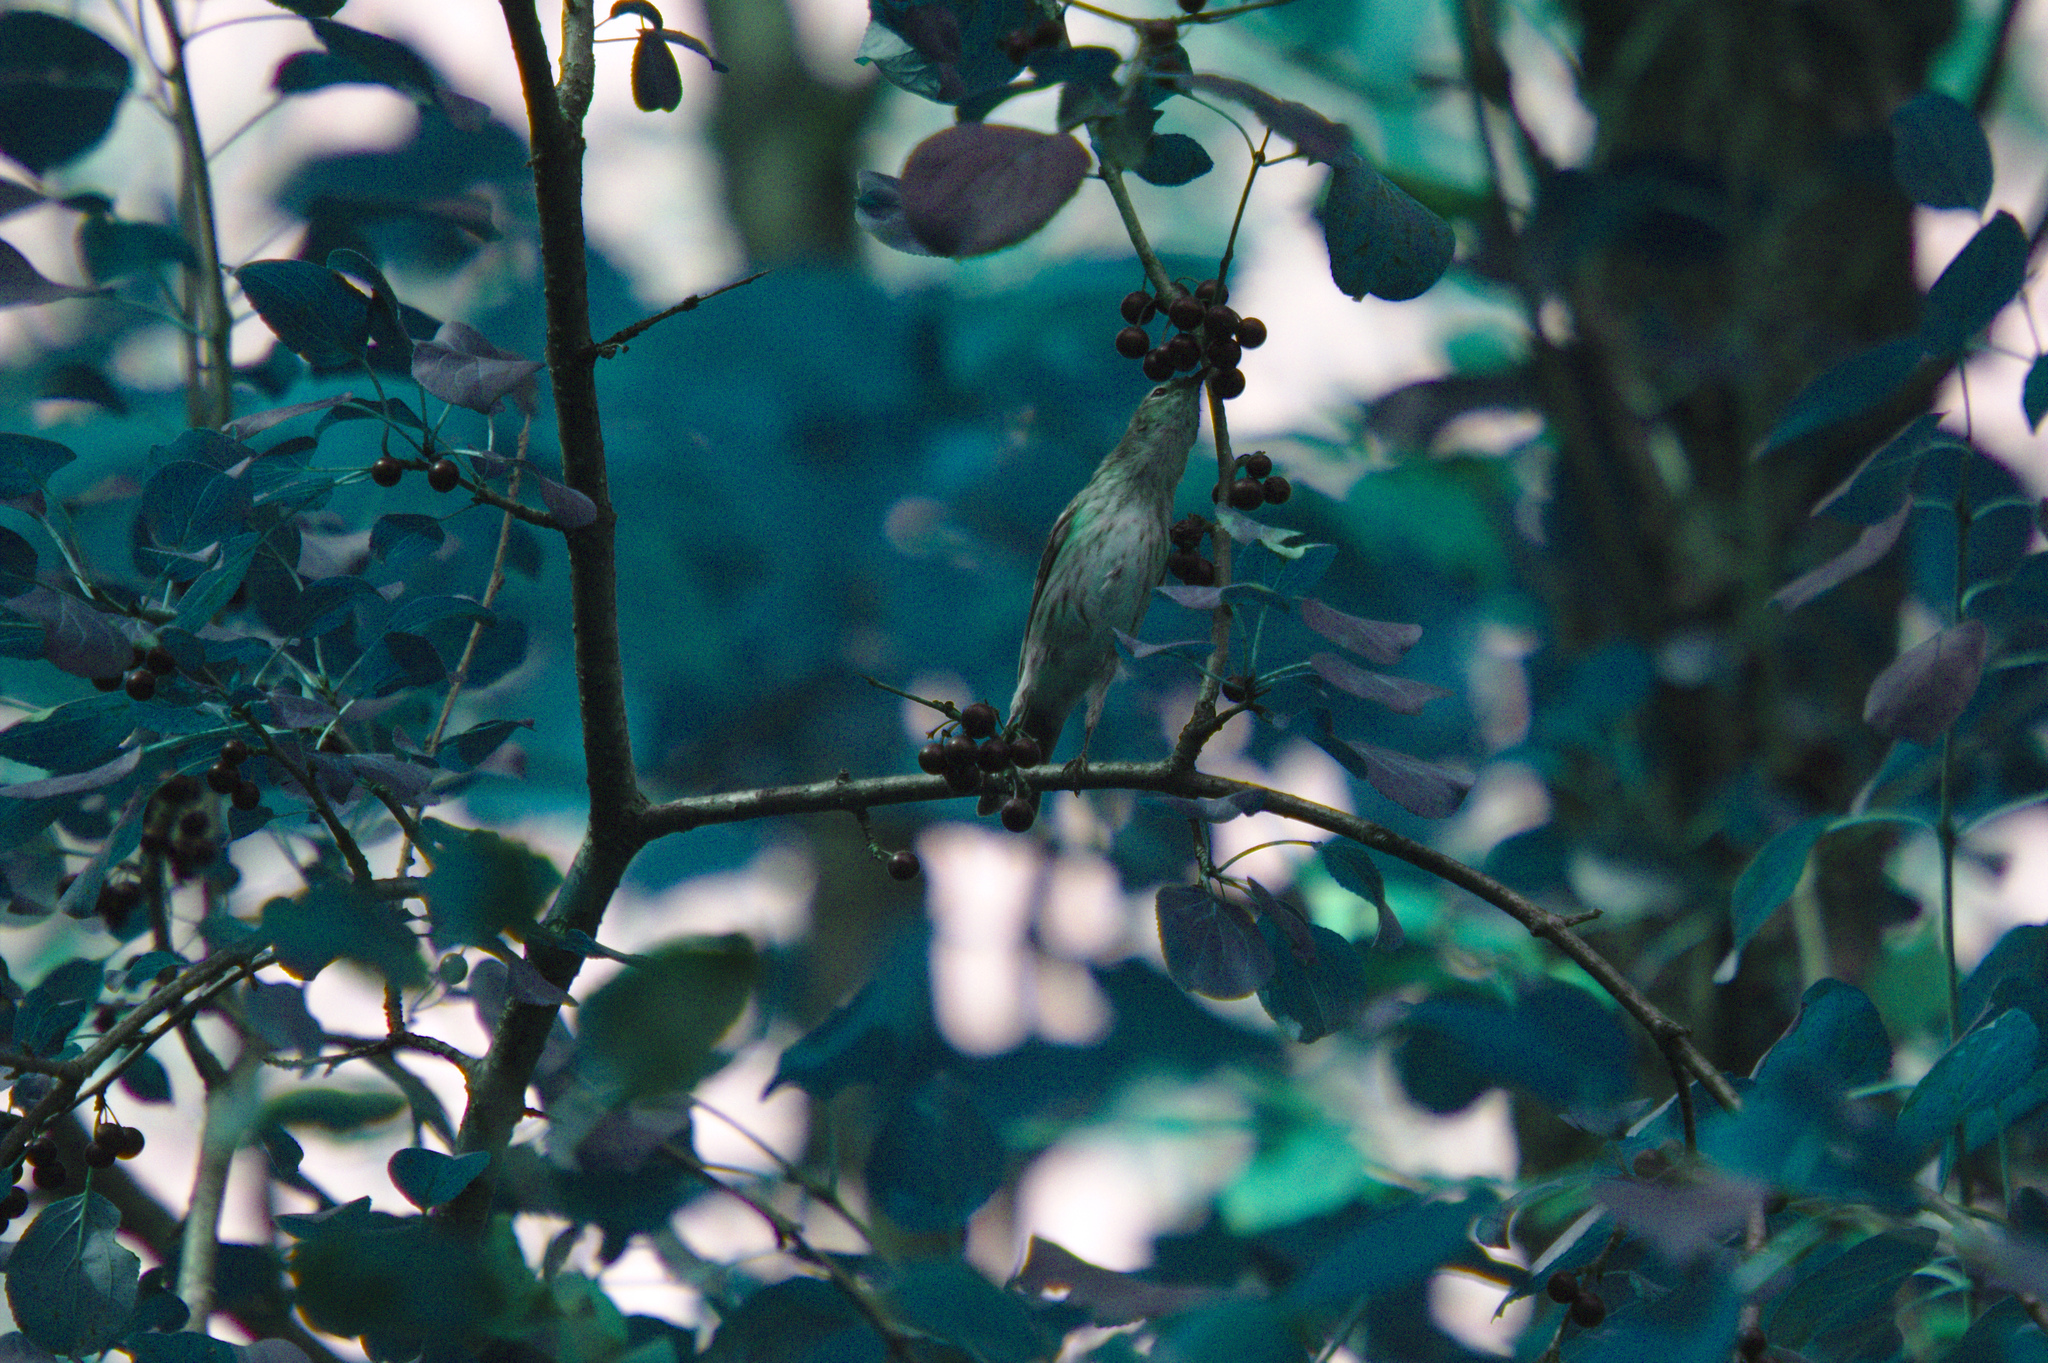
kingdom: Animalia
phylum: Chordata
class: Aves
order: Passeriformes
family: Parulidae
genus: Setophaga
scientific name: Setophaga coronata
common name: Myrtle warbler
